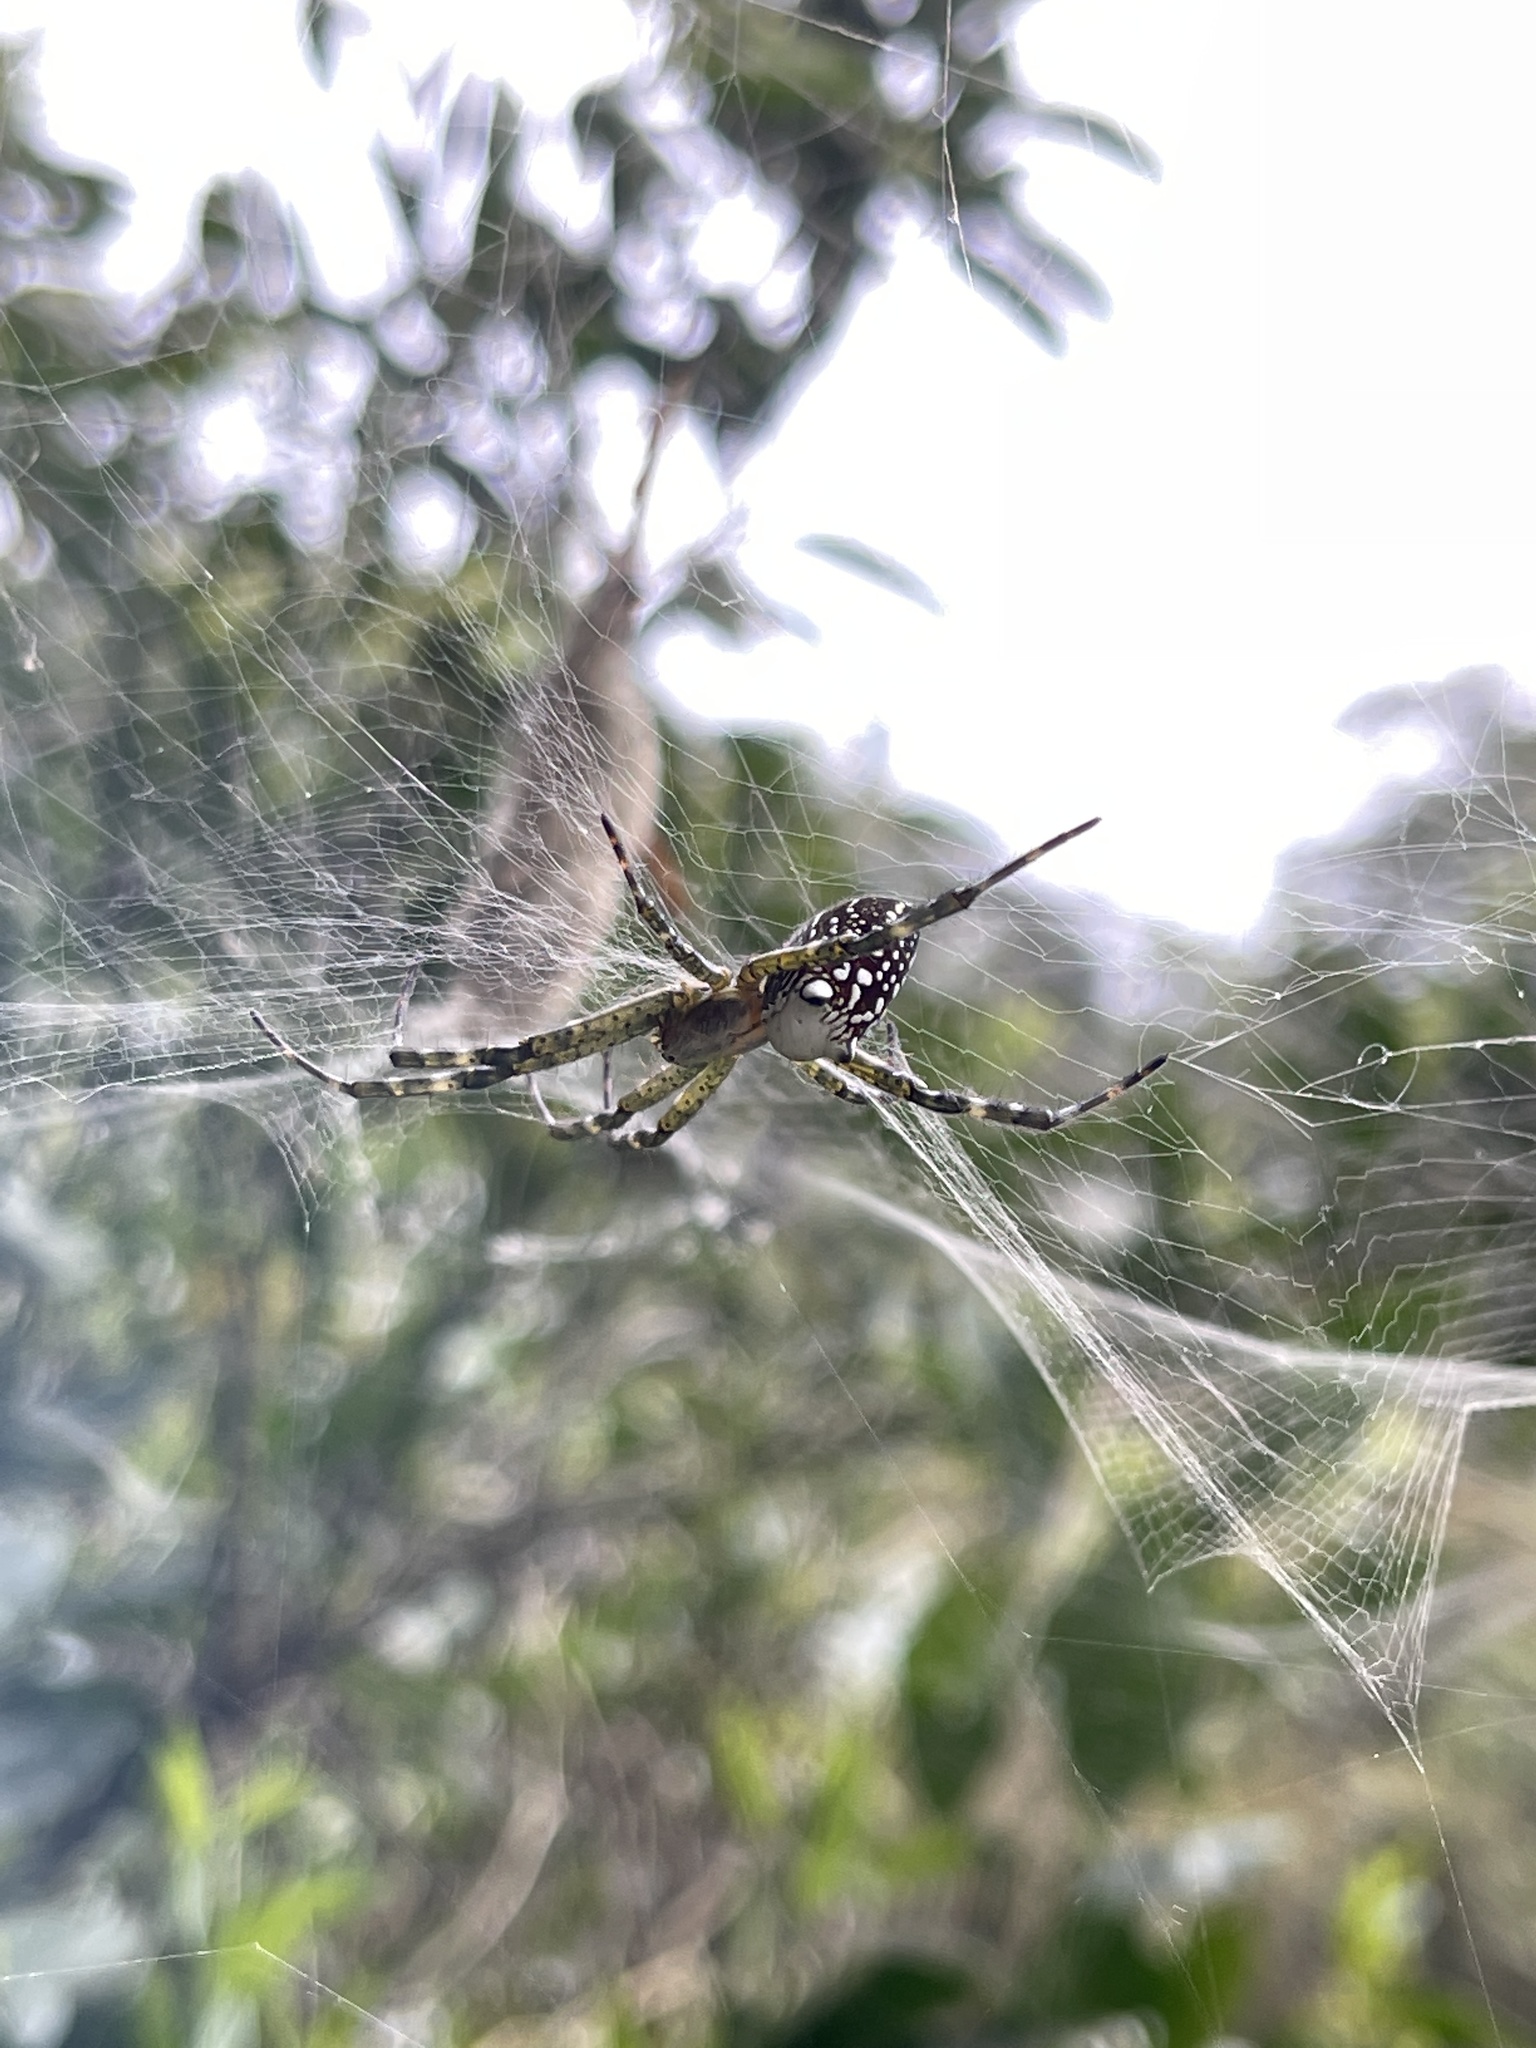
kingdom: Chromista
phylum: Ochrophyta
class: Dictyochophyceae
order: Pedinellales
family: Cyrtophoraceae
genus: Cyrtophora
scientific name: Cyrtophora moluccensis
